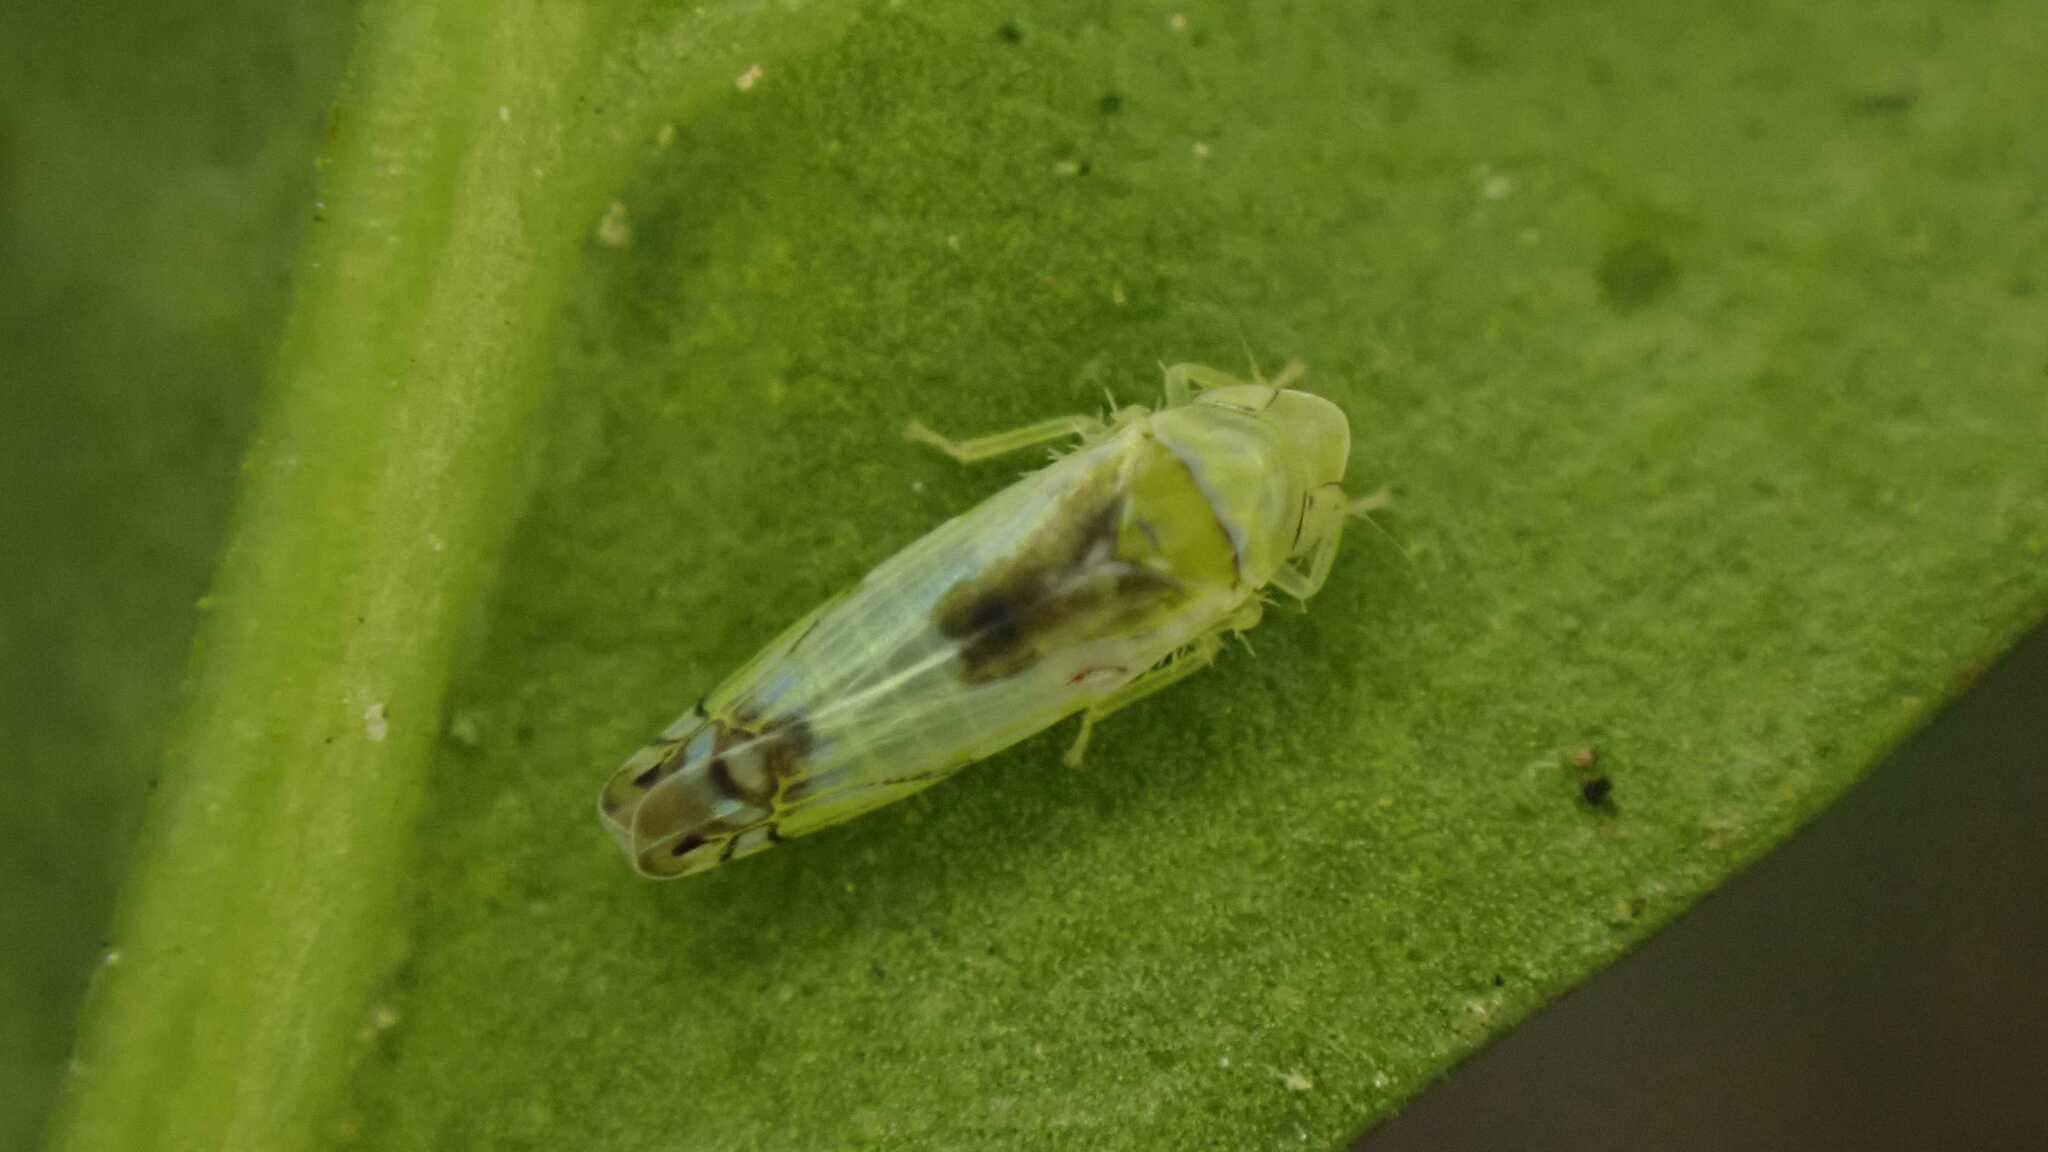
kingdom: Animalia
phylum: Arthropoda
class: Insecta
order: Hemiptera
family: Cicadellidae
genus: Zyginella
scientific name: Zyginella pulchra
